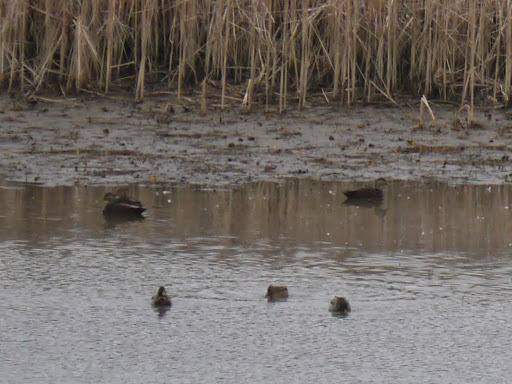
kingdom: Animalia
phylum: Chordata
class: Aves
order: Anseriformes
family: Anatidae
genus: Anas
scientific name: Anas rubripes
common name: American black duck
